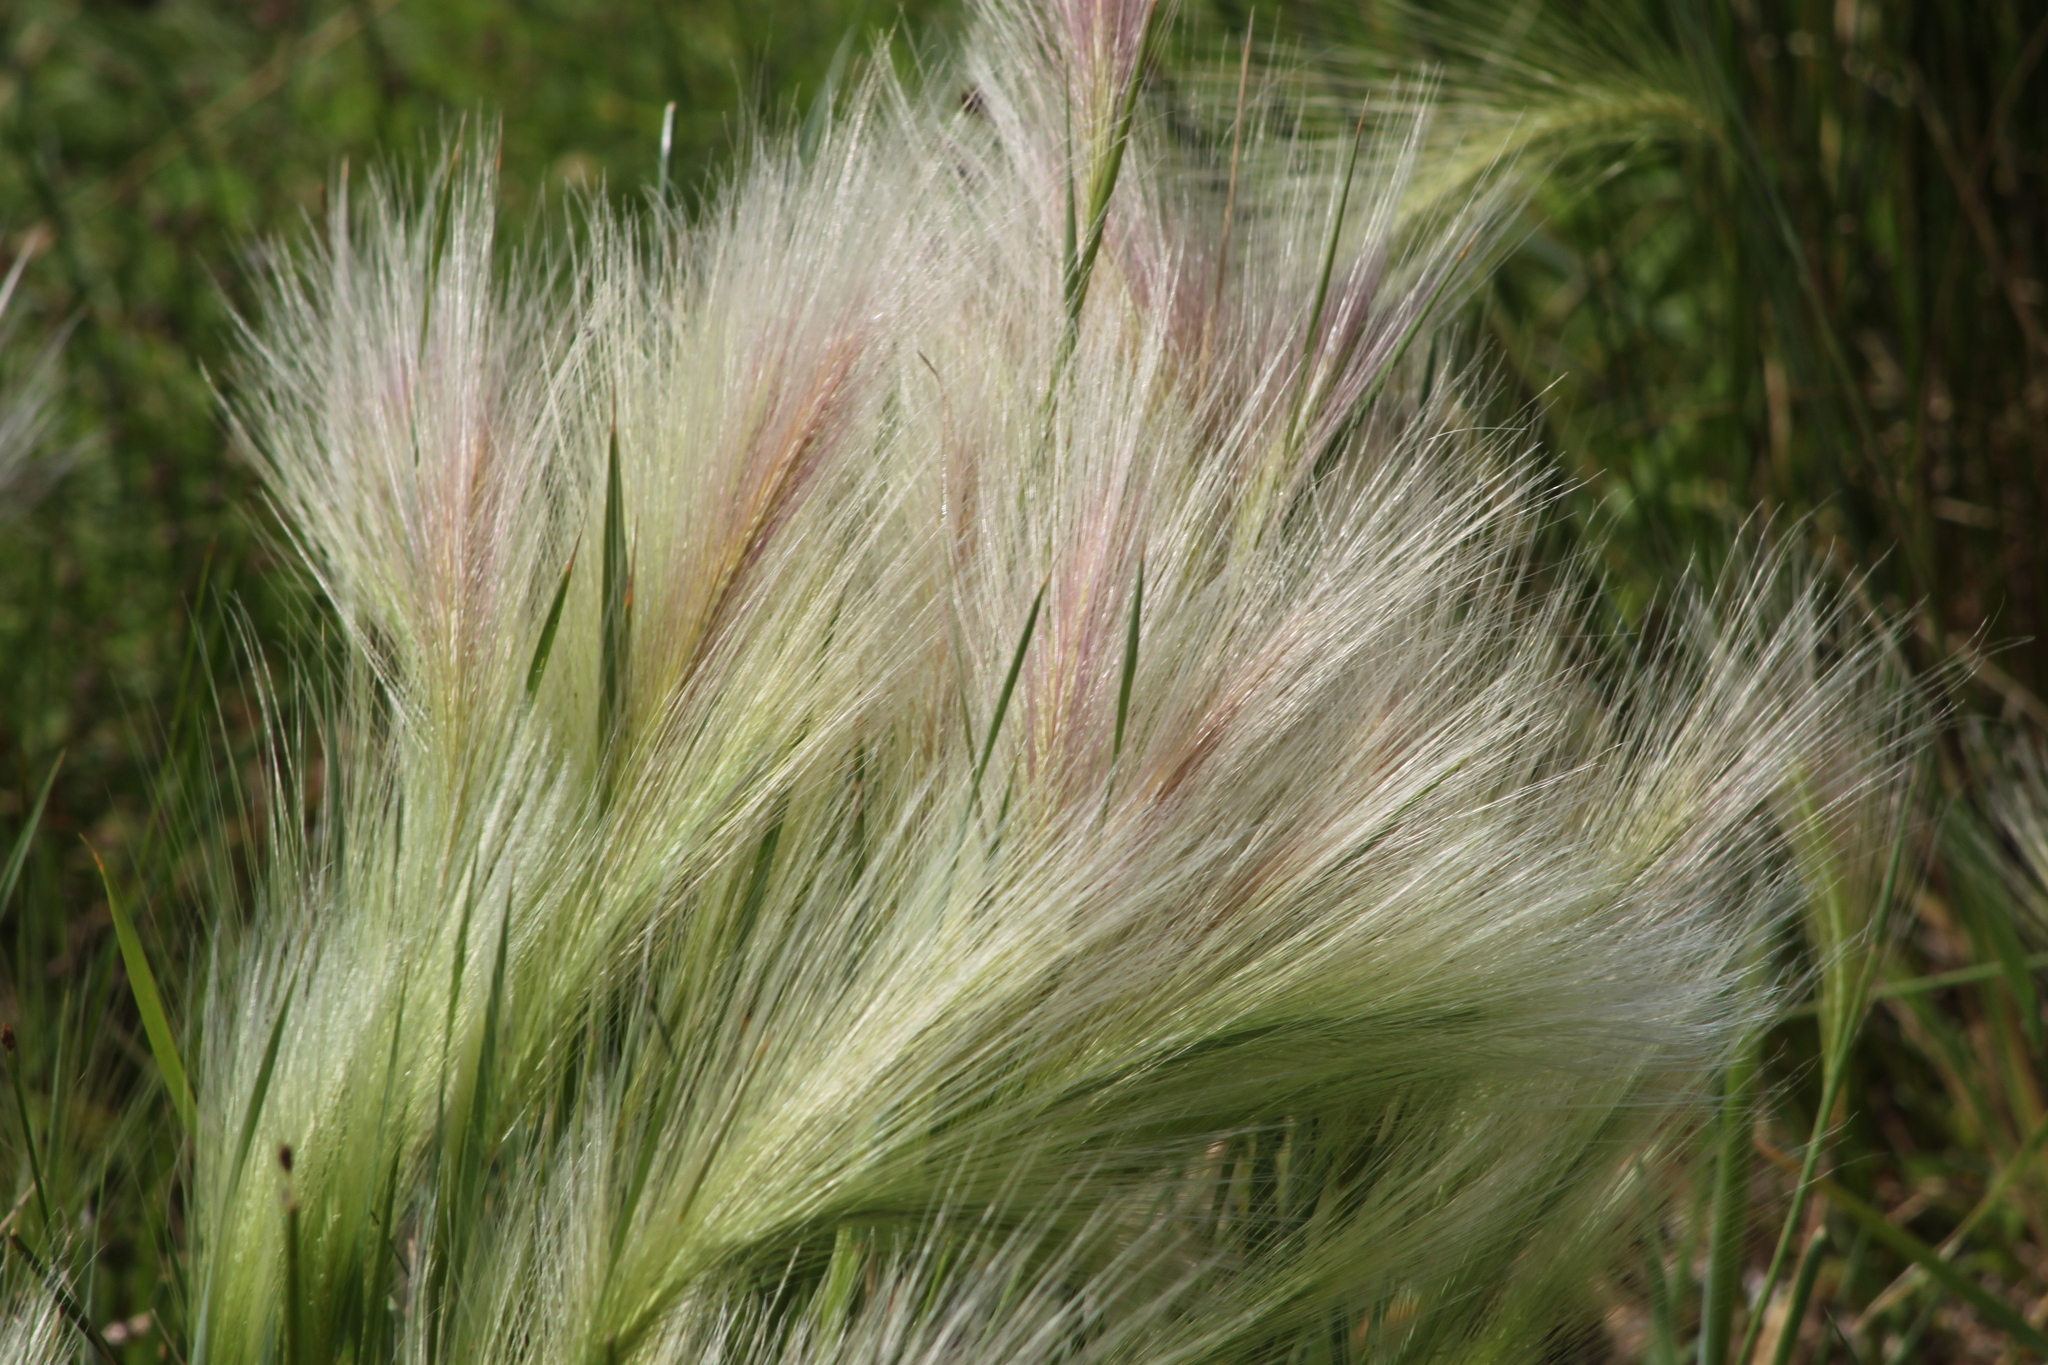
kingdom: Plantae
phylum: Tracheophyta
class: Liliopsida
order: Poales
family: Poaceae
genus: Hordeum
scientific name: Hordeum jubatum
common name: Foxtail barley
